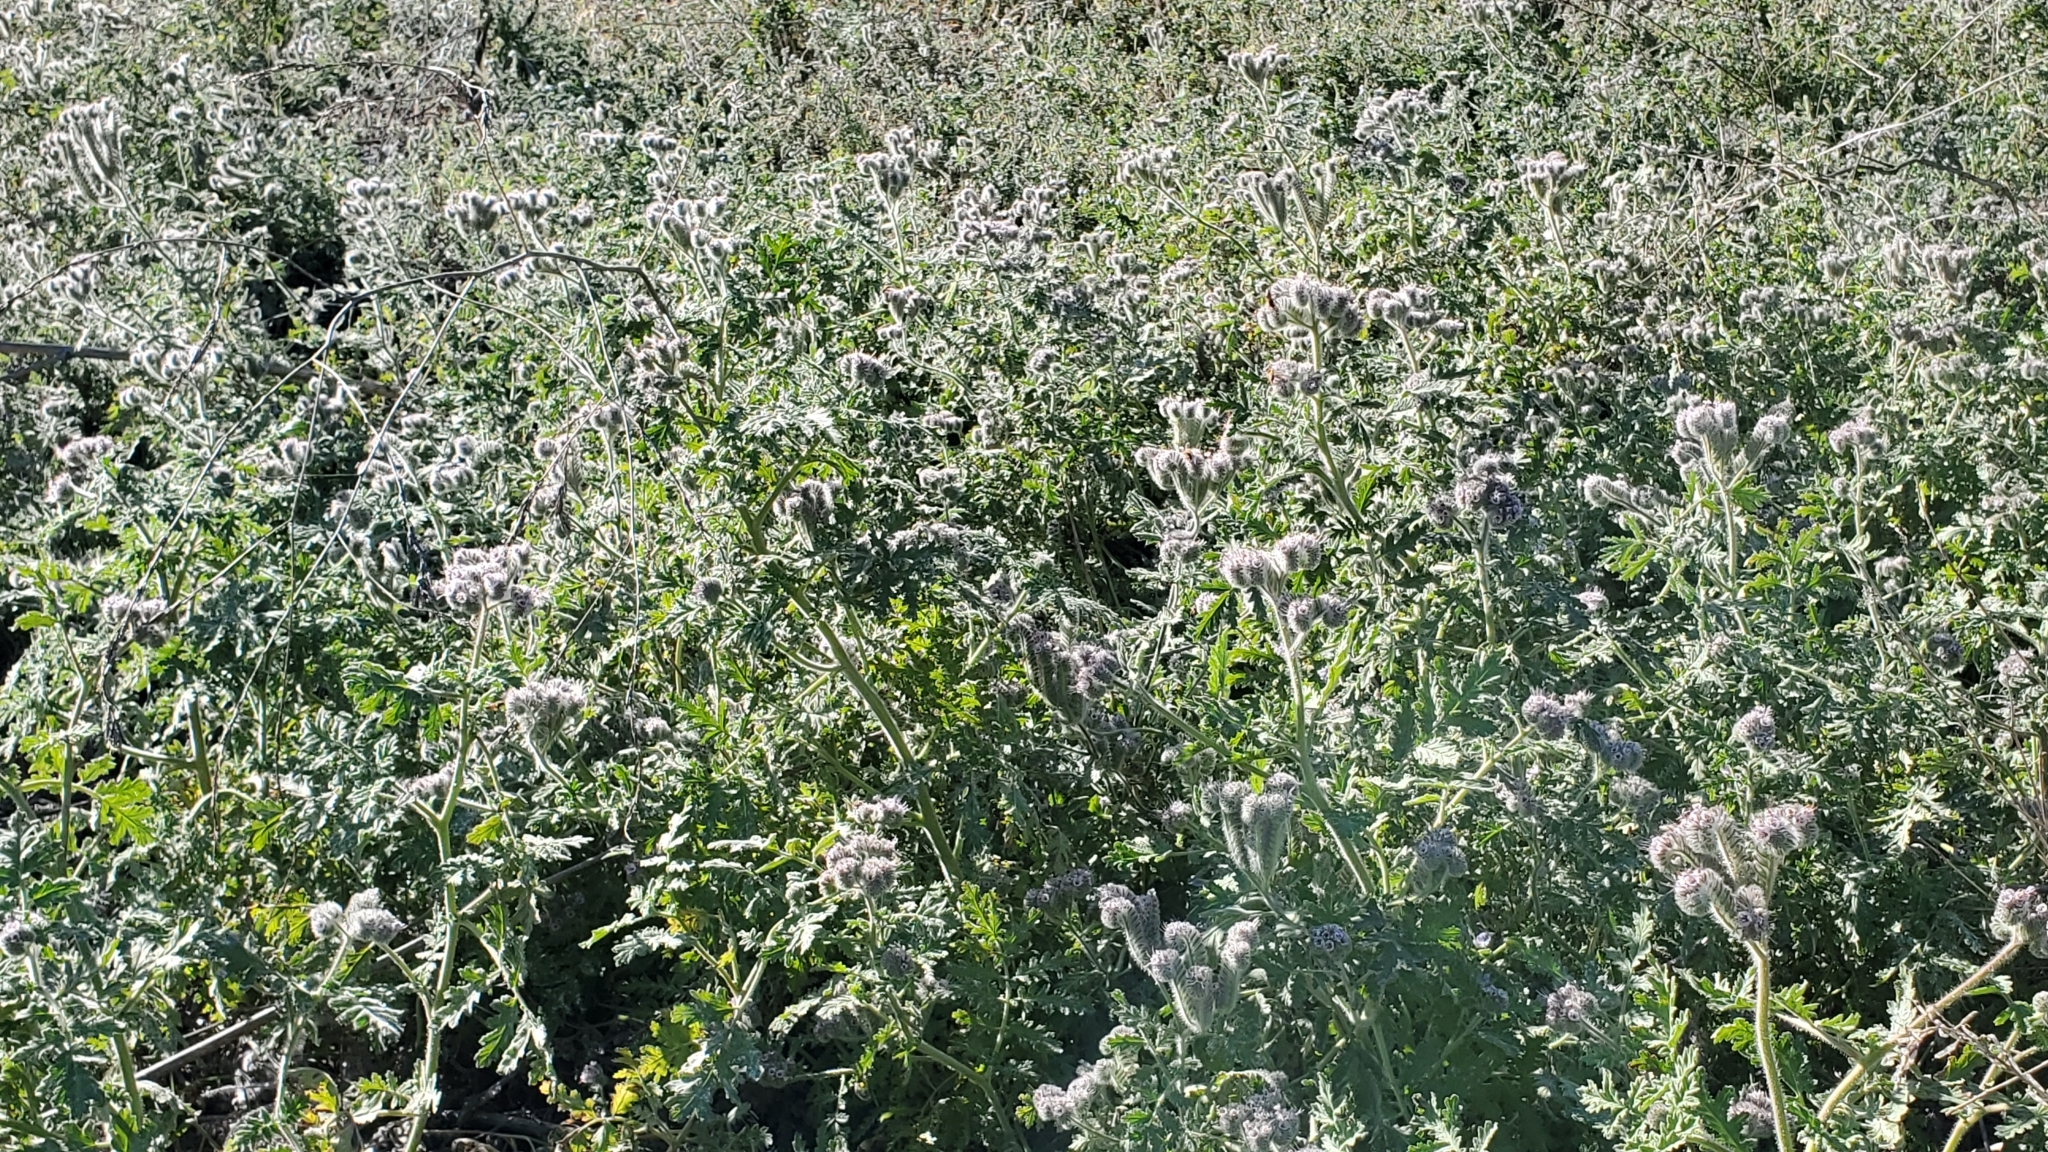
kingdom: Plantae
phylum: Tracheophyta
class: Magnoliopsida
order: Boraginales
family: Hydrophyllaceae
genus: Phacelia
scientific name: Phacelia hubbyi
